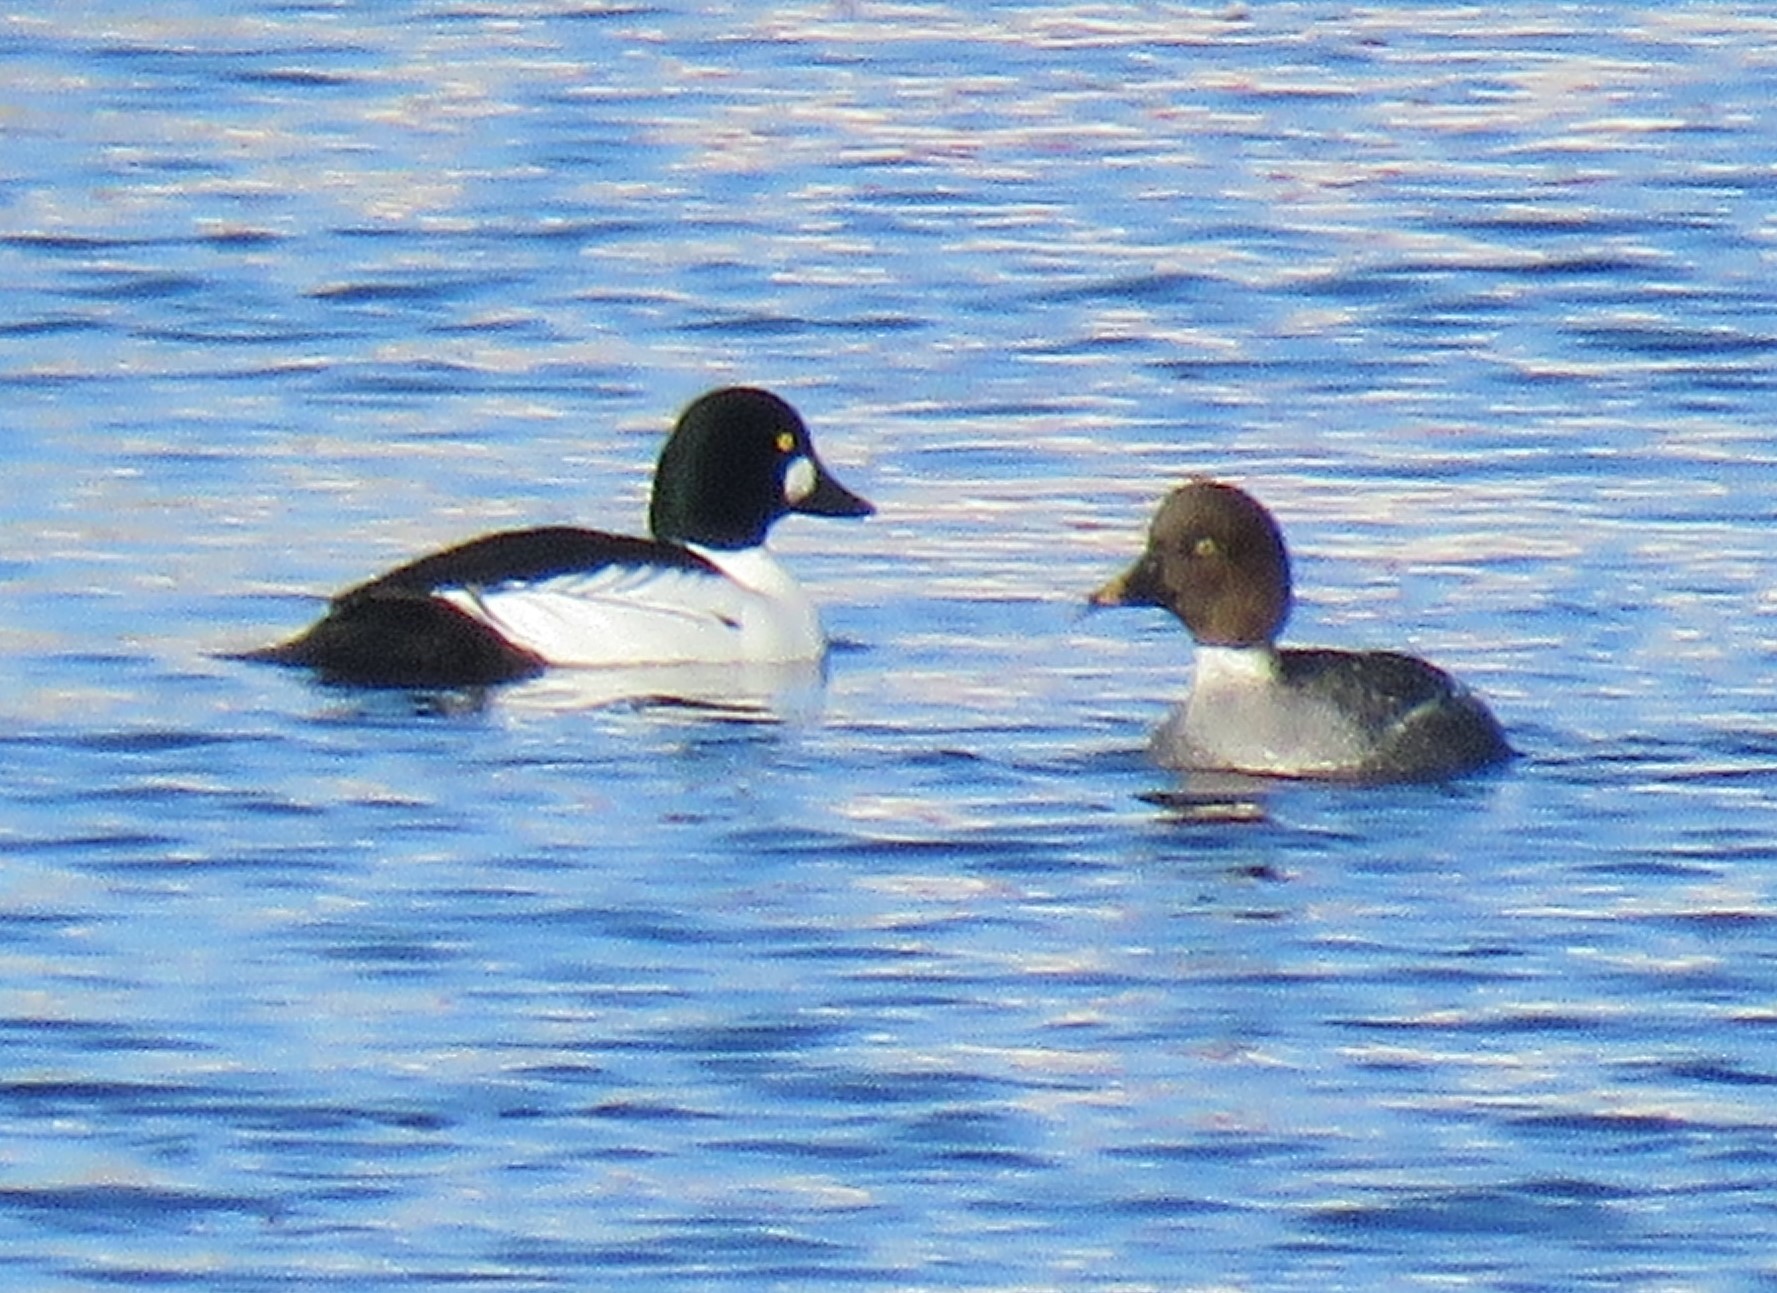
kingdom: Animalia
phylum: Chordata
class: Aves
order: Anseriformes
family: Anatidae
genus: Bucephala
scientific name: Bucephala clangula
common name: Common goldeneye
